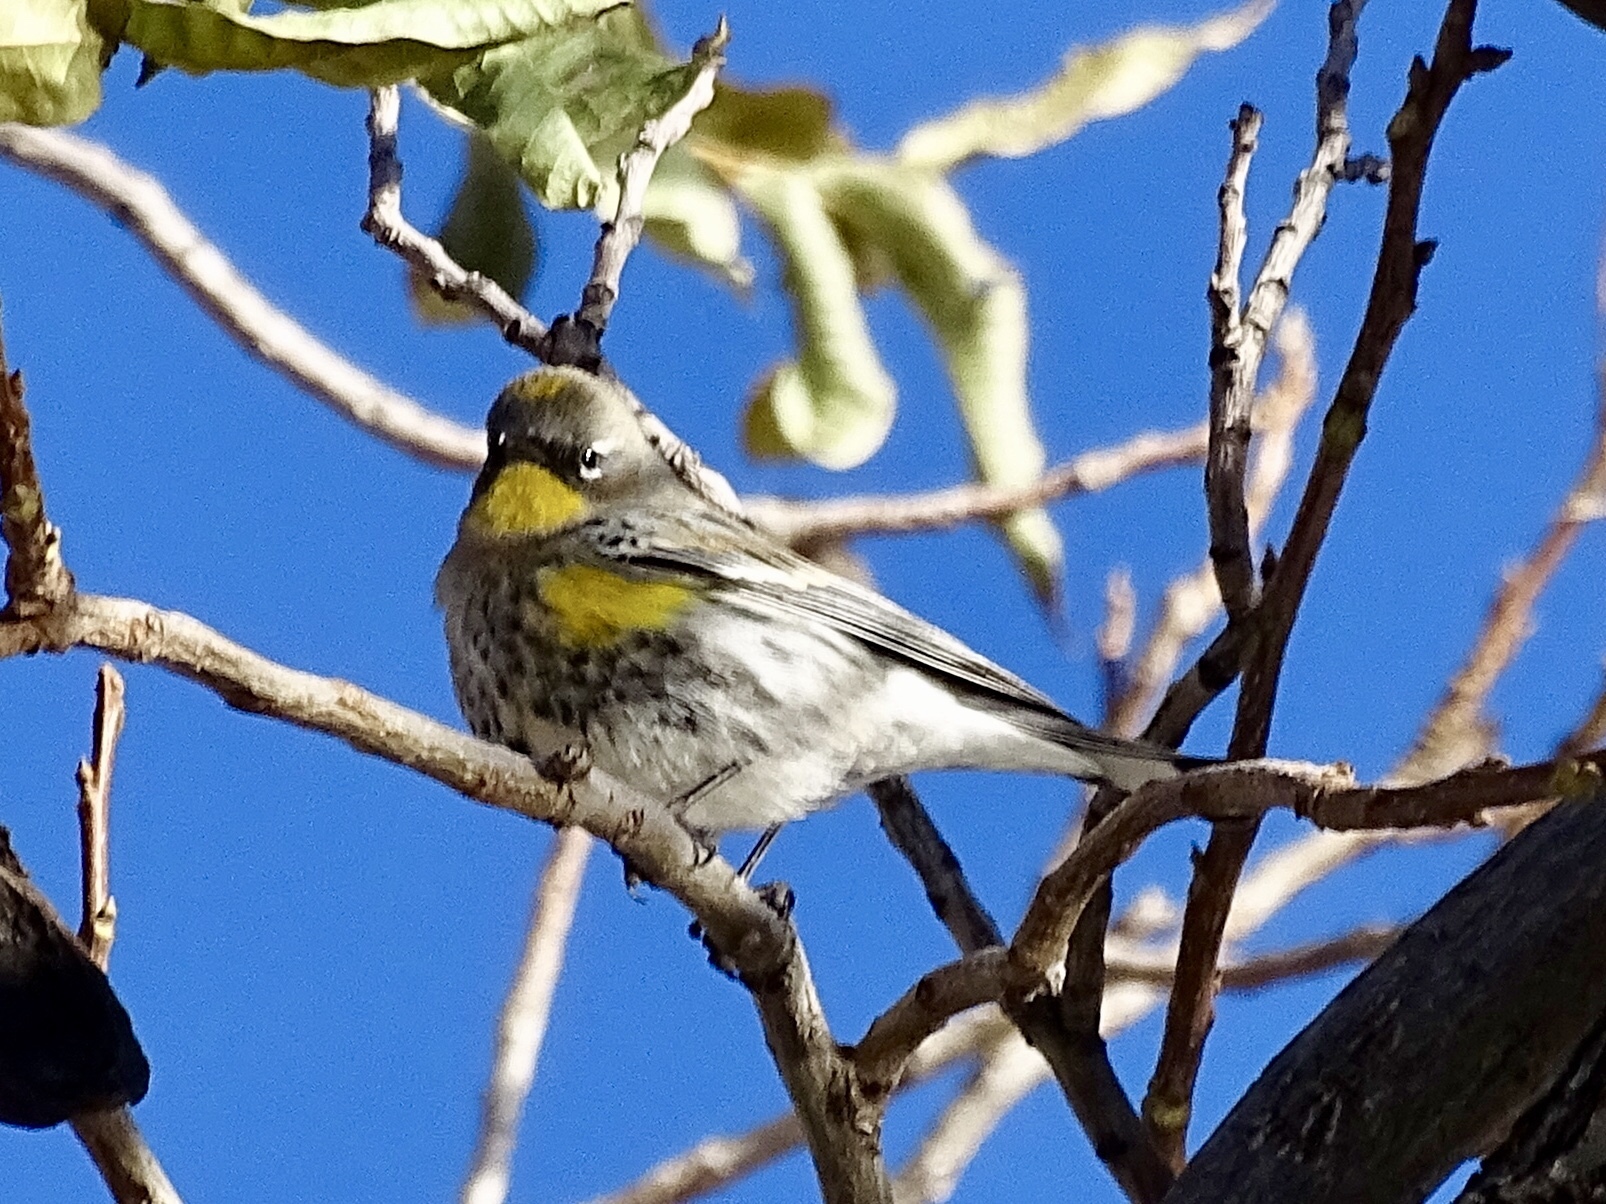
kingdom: Animalia
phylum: Chordata
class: Aves
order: Passeriformes
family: Parulidae
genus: Setophaga
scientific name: Setophaga auduboni
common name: Audubon's warbler
